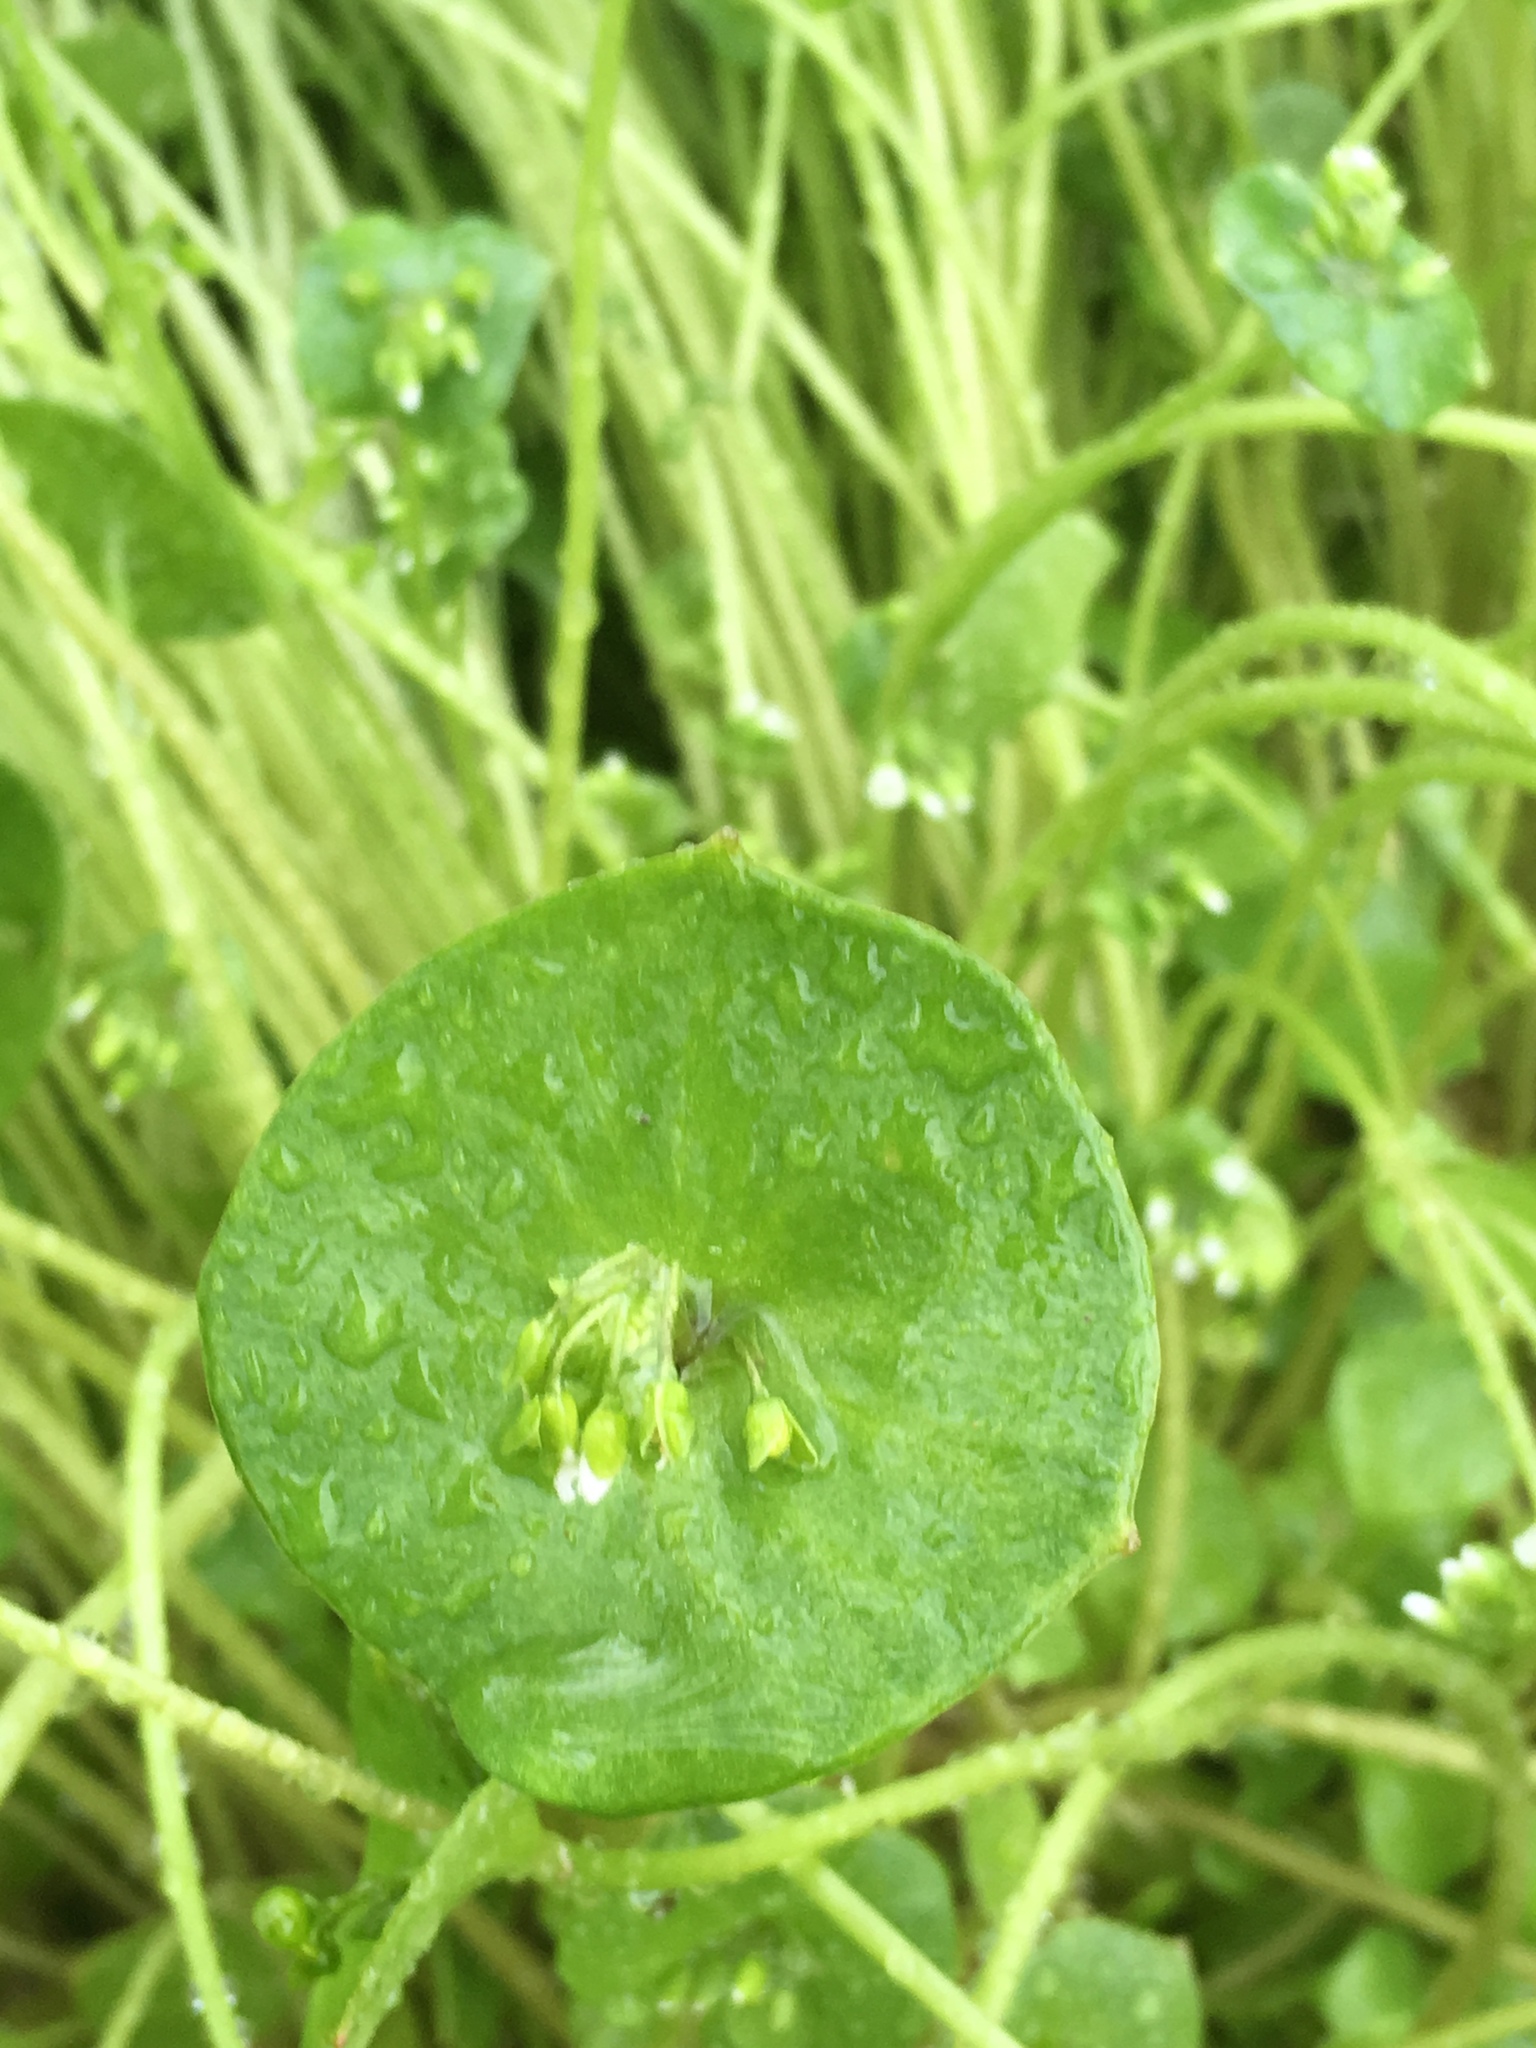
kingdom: Plantae
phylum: Tracheophyta
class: Magnoliopsida
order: Caryophyllales
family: Montiaceae
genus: Claytonia
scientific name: Claytonia perfoliata
